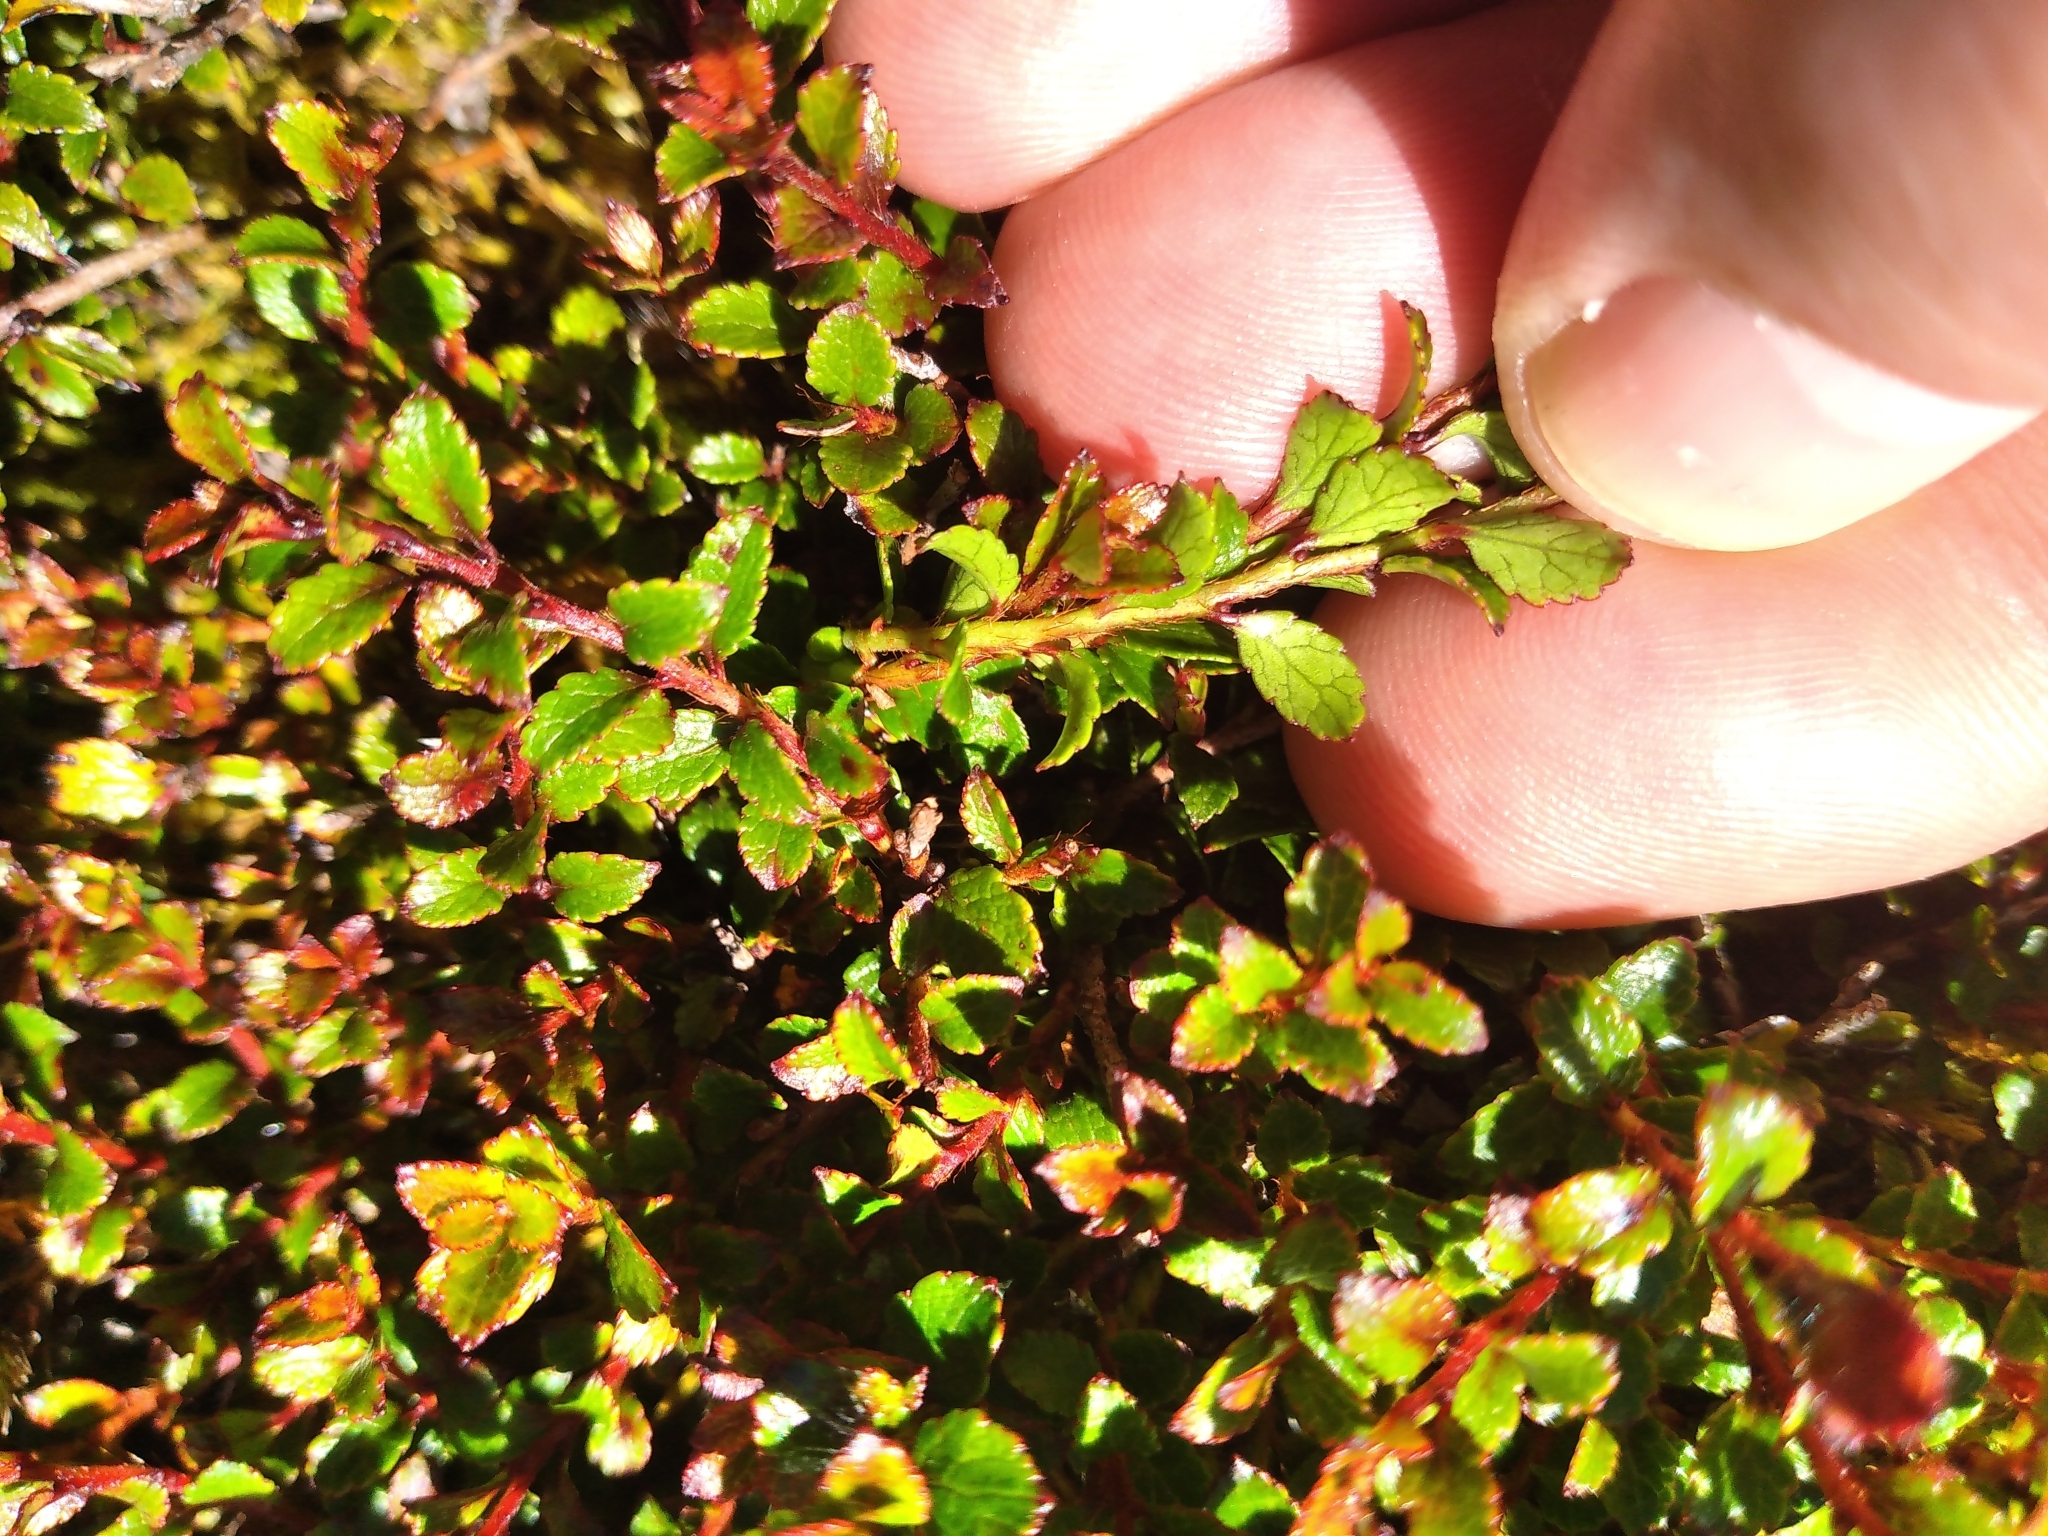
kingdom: Plantae
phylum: Tracheophyta
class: Magnoliopsida
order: Ericales
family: Ericaceae
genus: Gaultheria
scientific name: Gaultheria depressa
